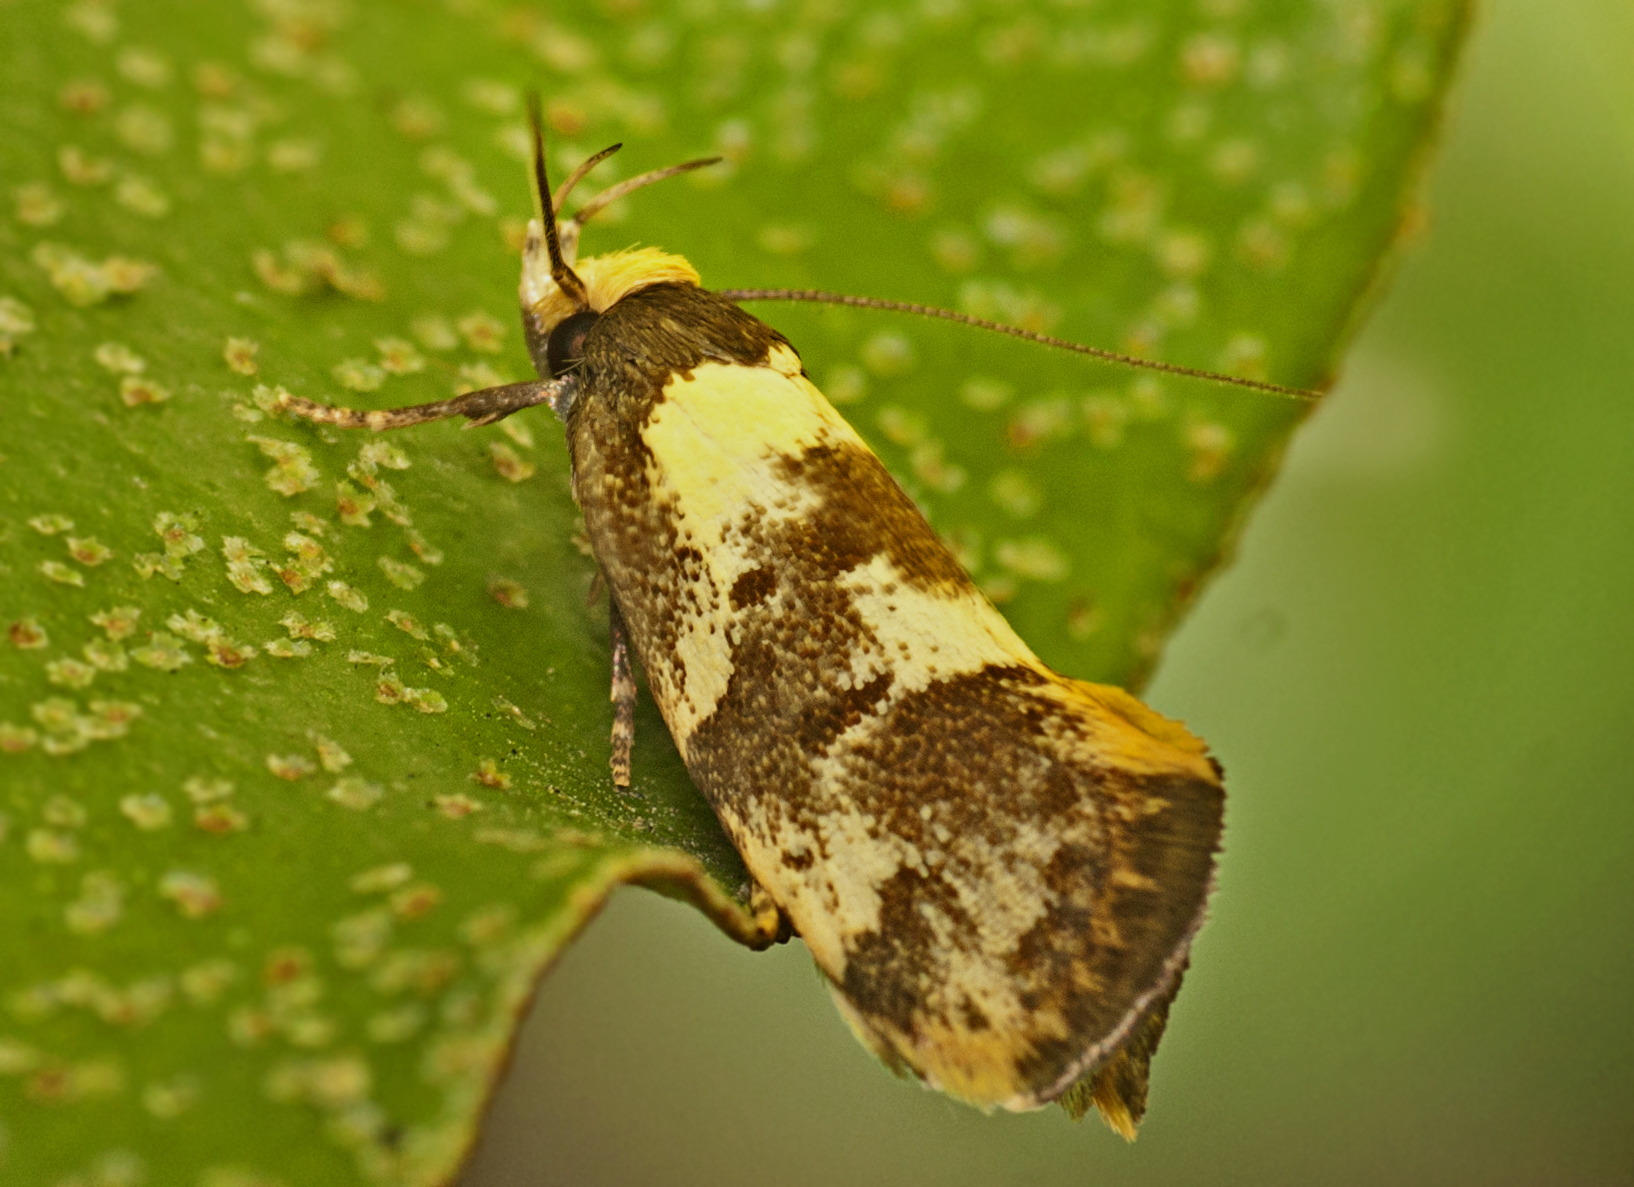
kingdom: Animalia
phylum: Arthropoda
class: Insecta
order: Lepidoptera
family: Oecophoridae
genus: Eulechria
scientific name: Eulechria marmorata
